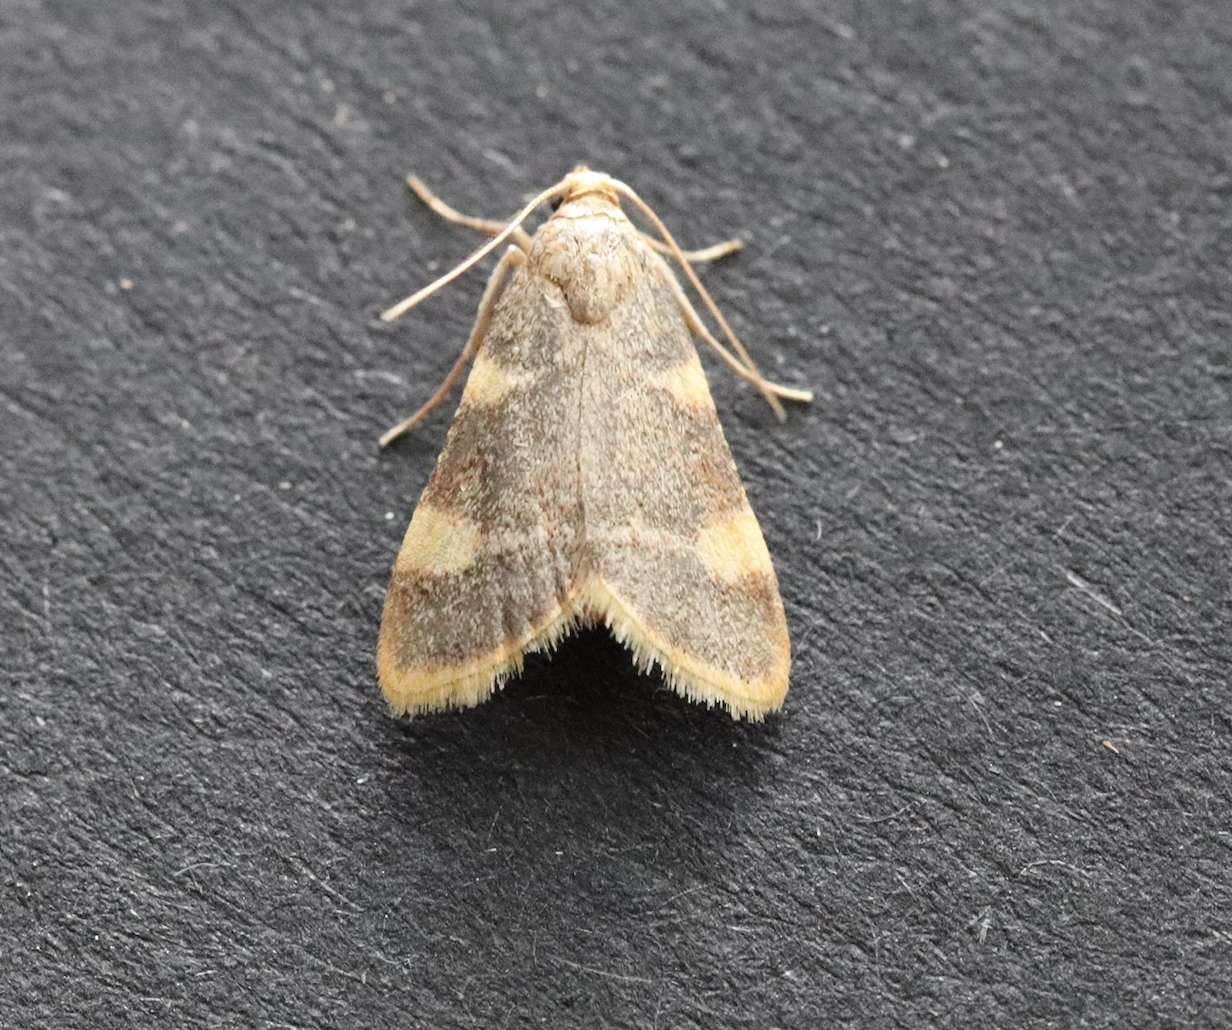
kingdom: Animalia
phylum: Arthropoda
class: Insecta
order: Lepidoptera
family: Pyralidae
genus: Hypsopygia
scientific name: Hypsopygia costalis
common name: Gold triangle
